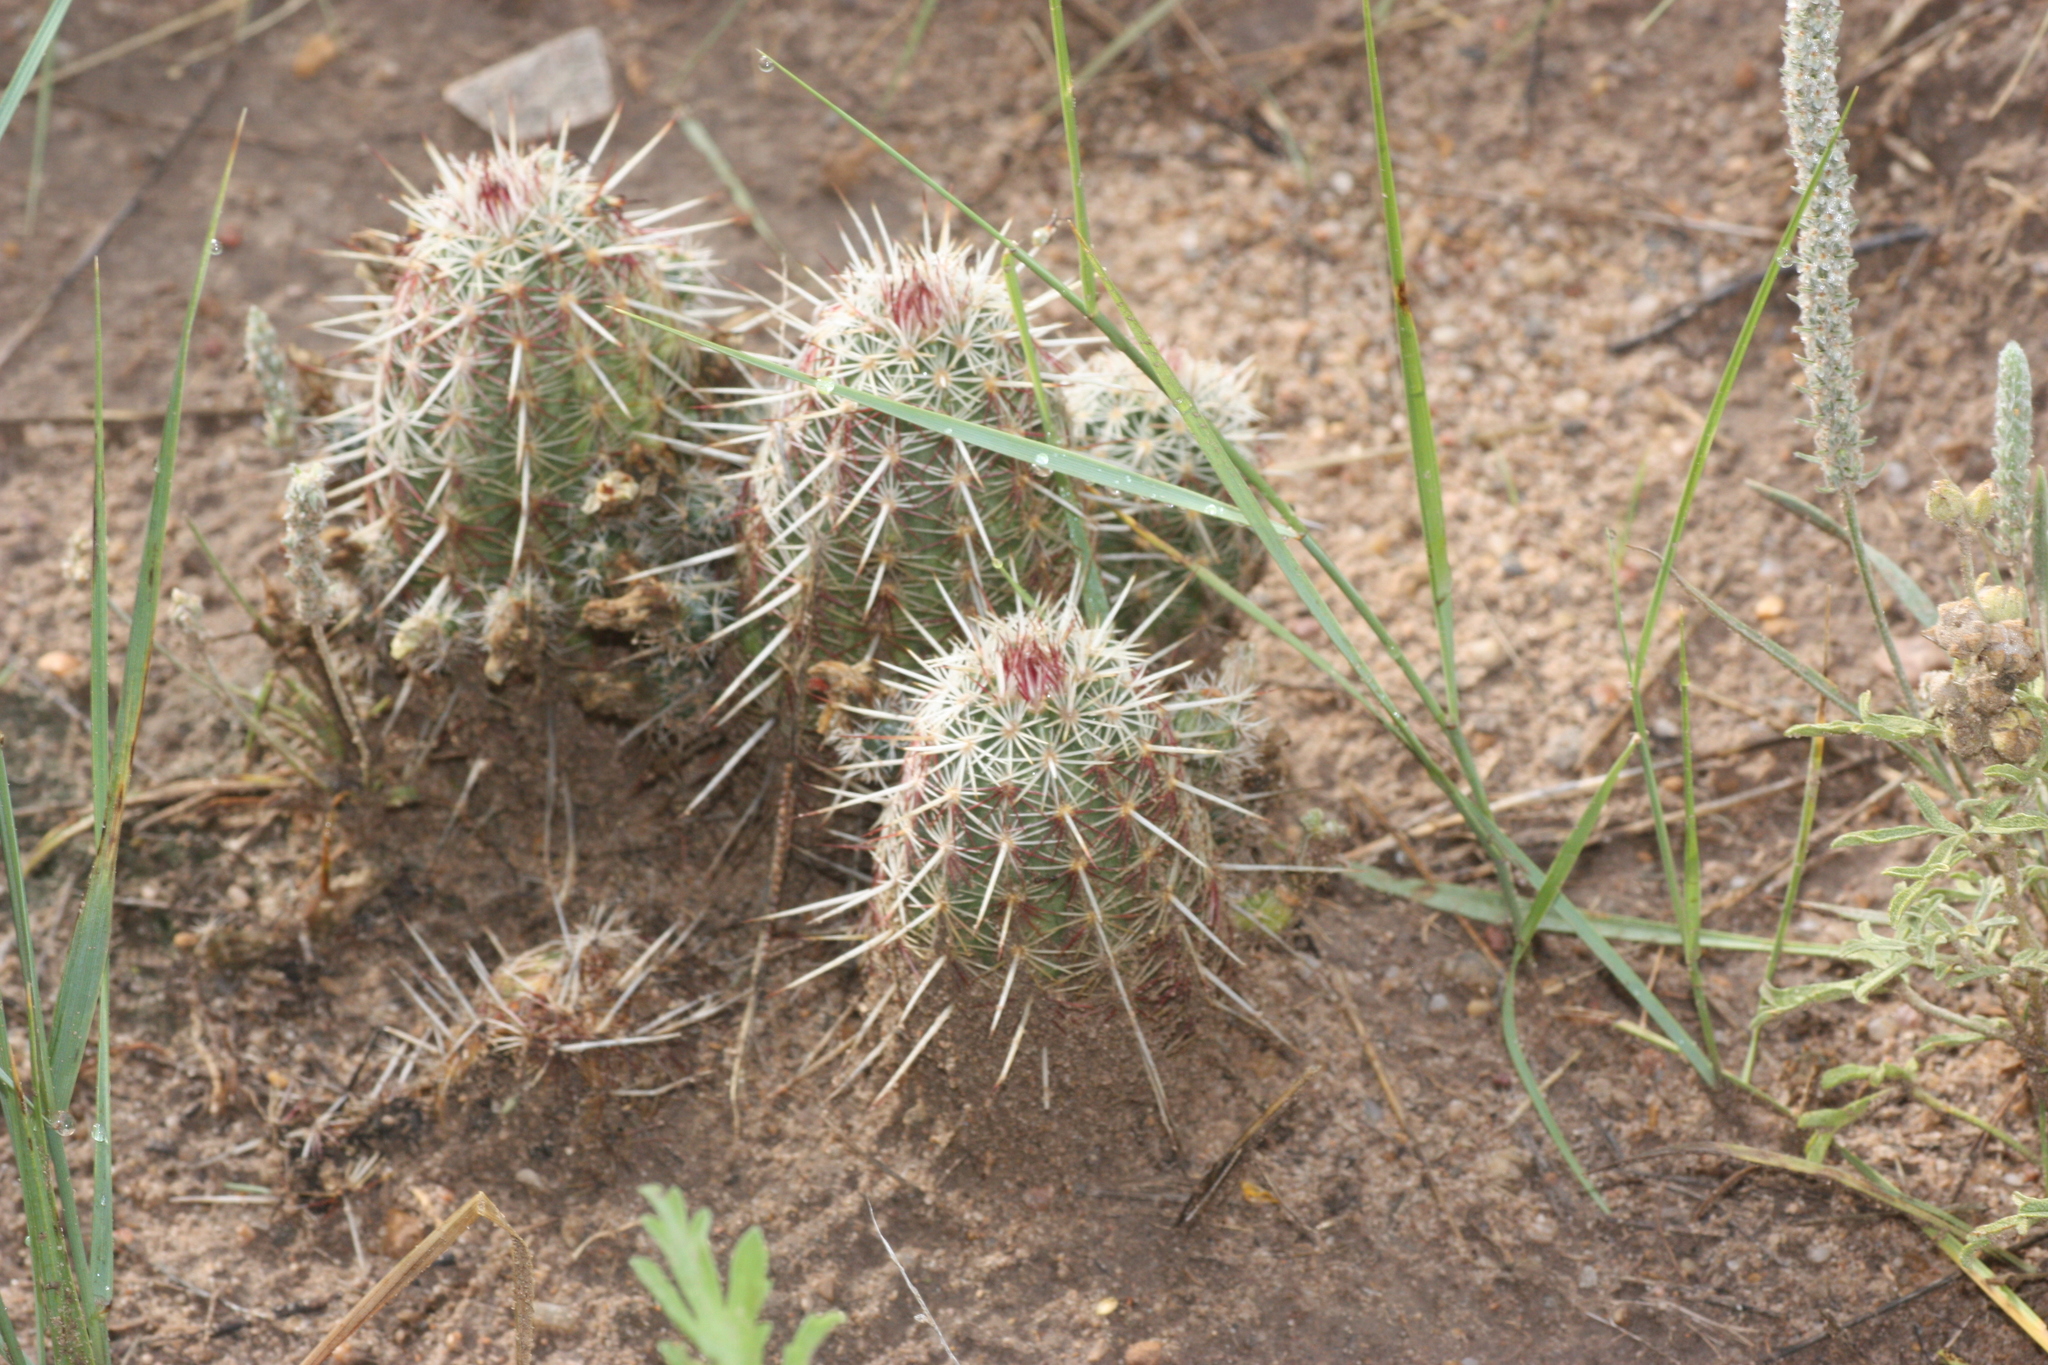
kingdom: Plantae
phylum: Tracheophyta
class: Magnoliopsida
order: Caryophyllales
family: Cactaceae
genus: Echinocereus
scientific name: Echinocereus viridiflorus
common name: Nylon hedgehog cactus
